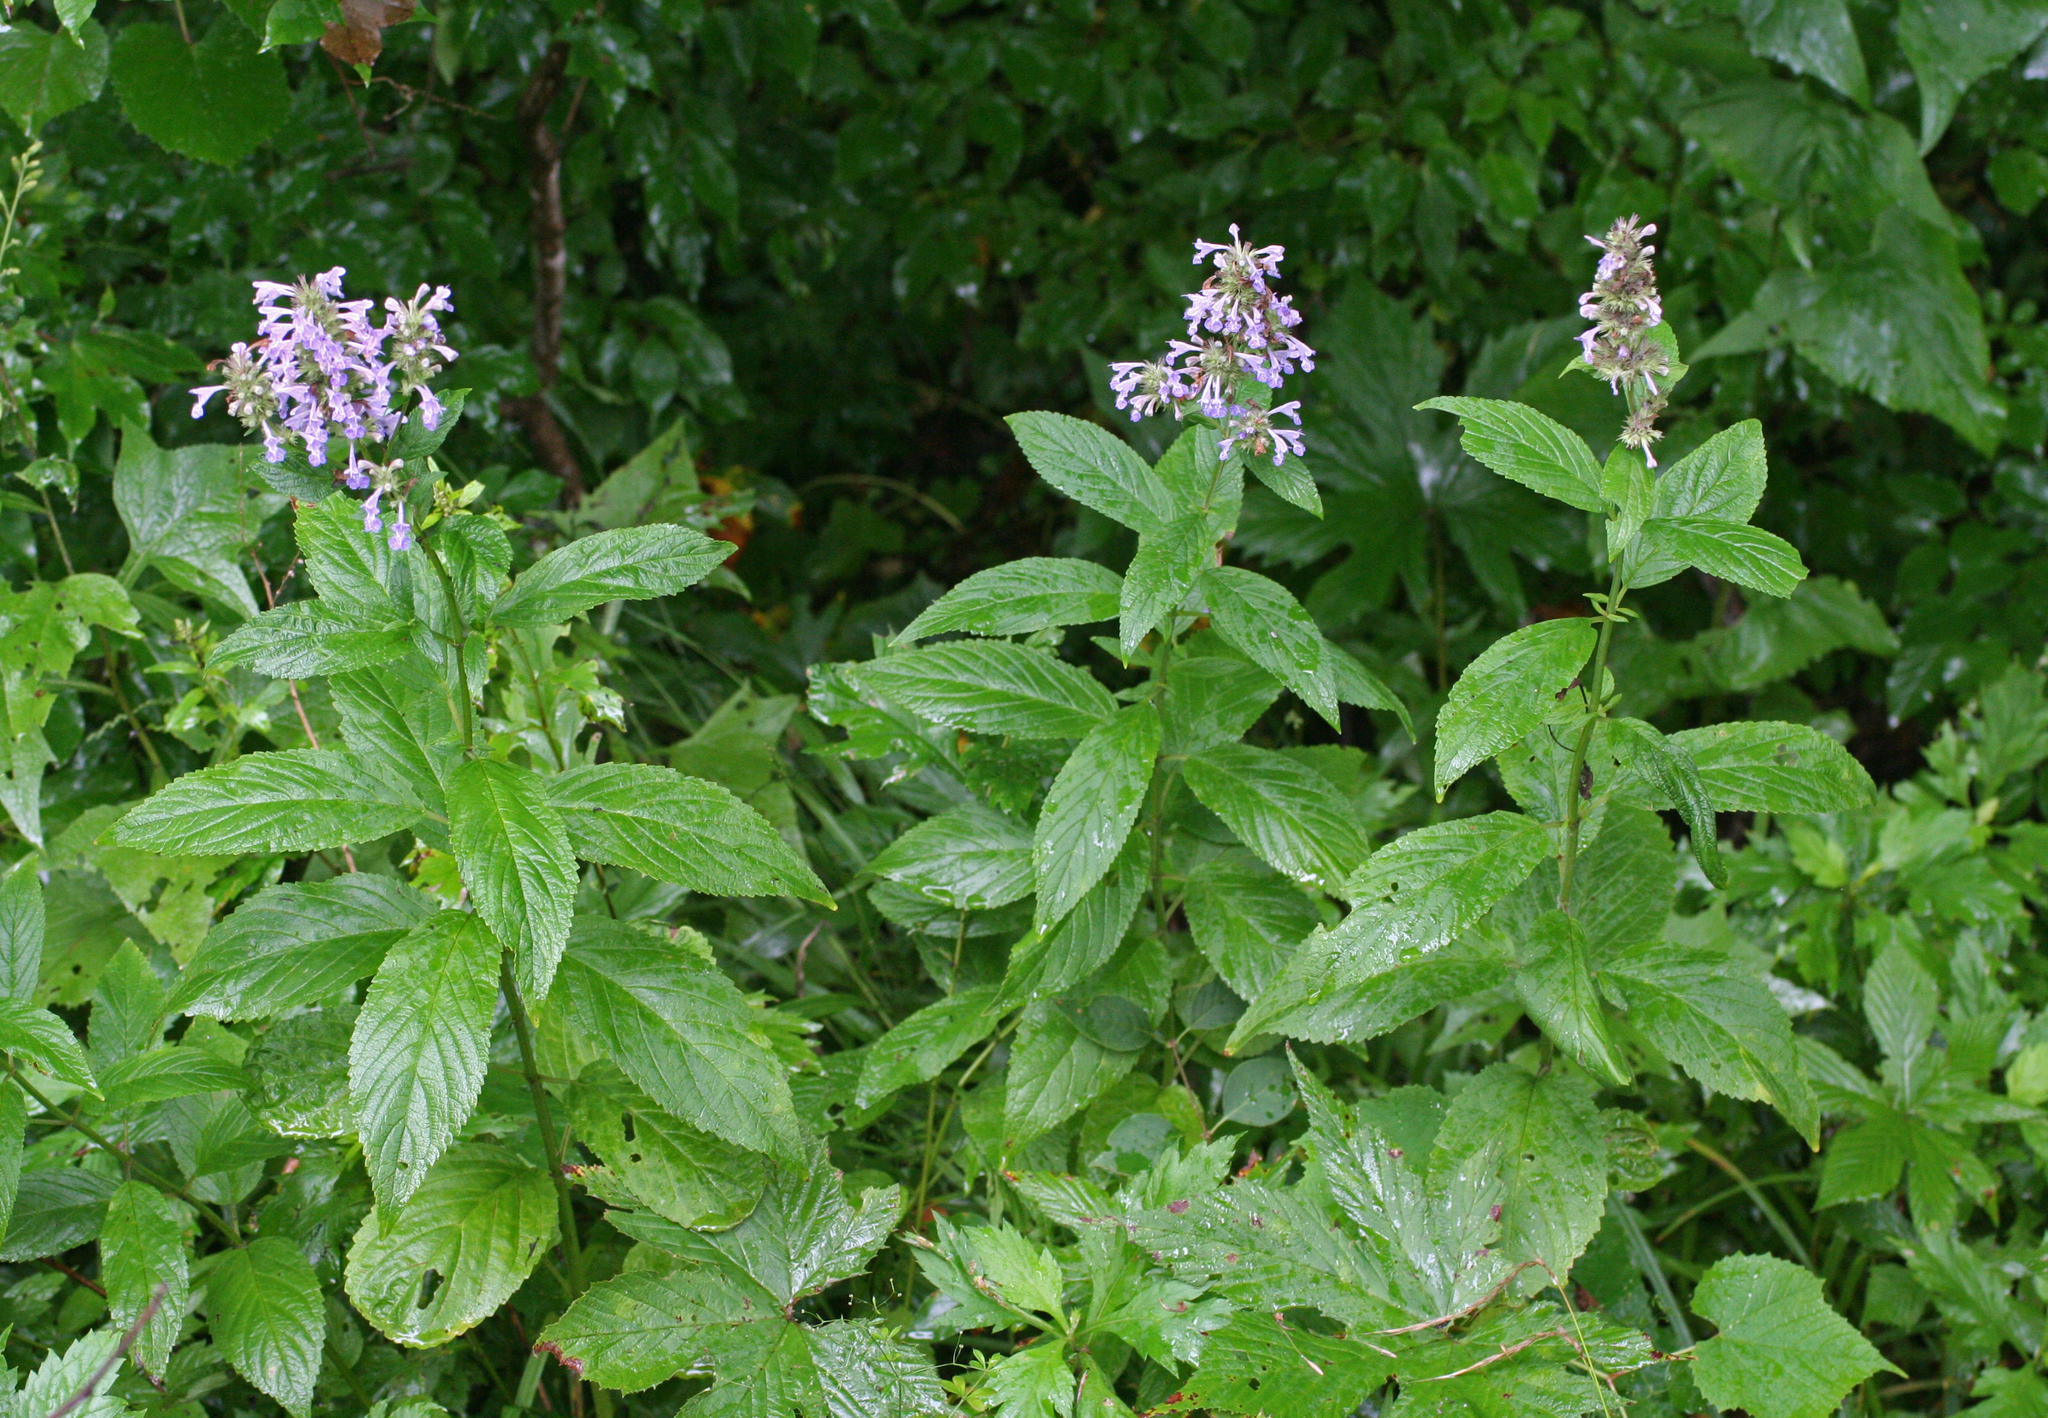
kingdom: Plantae
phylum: Tracheophyta
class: Magnoliopsida
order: Lamiales
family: Lamiaceae
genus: Nepeta
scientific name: Nepeta manchuriensis
